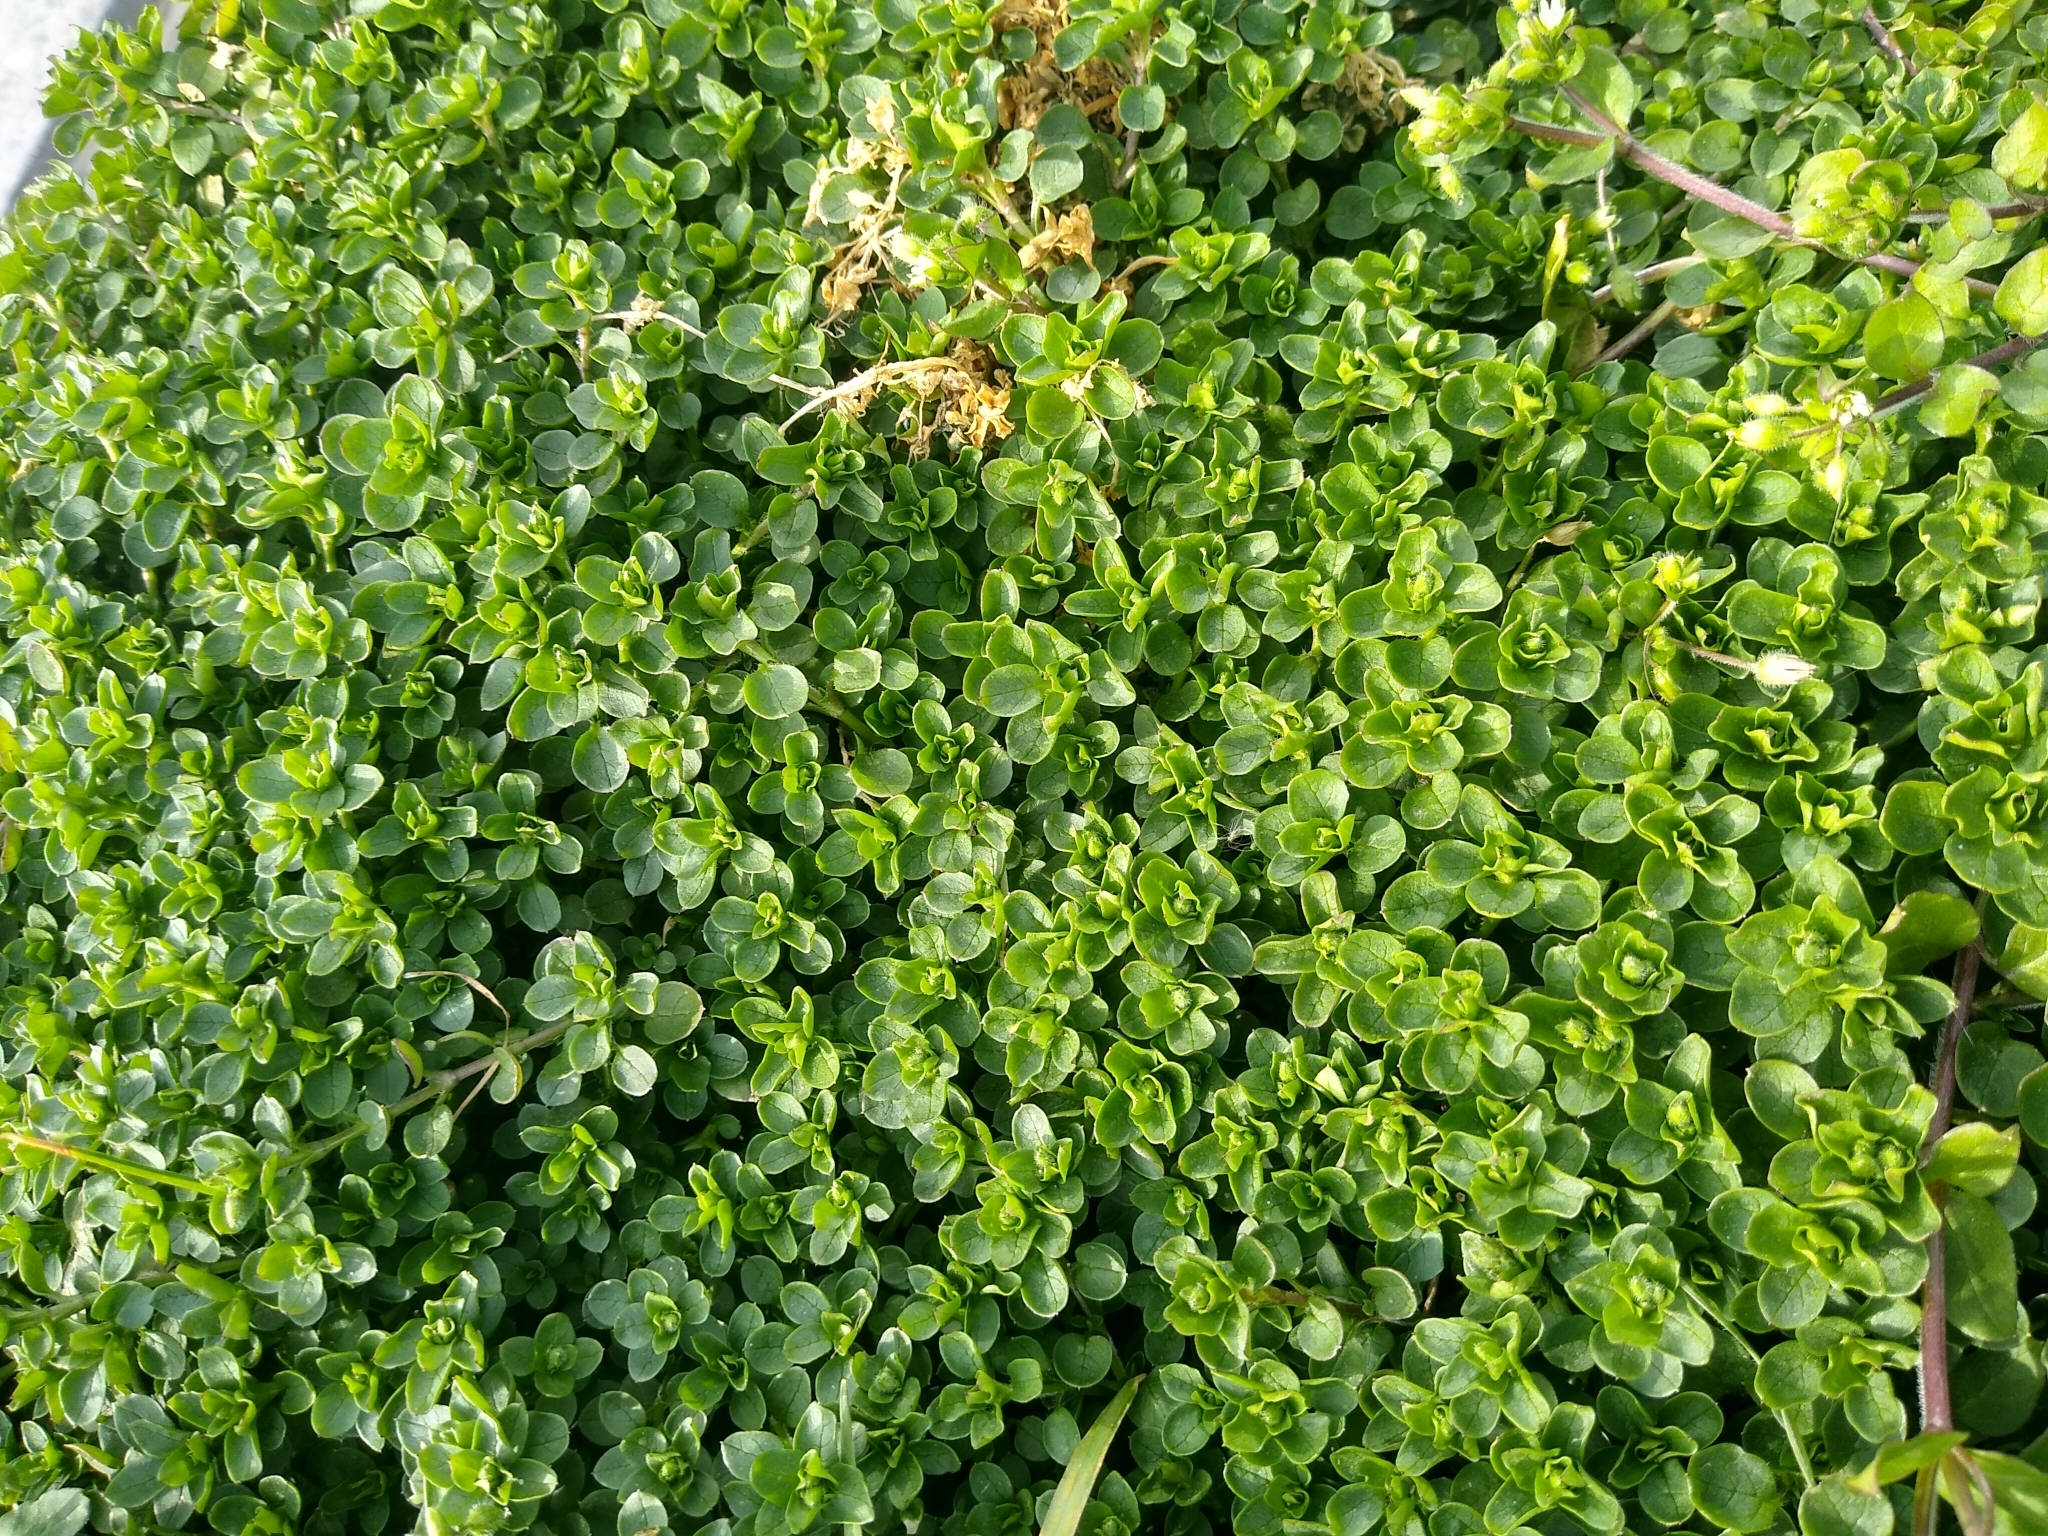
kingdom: Plantae
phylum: Tracheophyta
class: Magnoliopsida
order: Caryophyllales
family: Caryophyllaceae
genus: Stellaria
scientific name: Stellaria media
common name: Common chickweed
